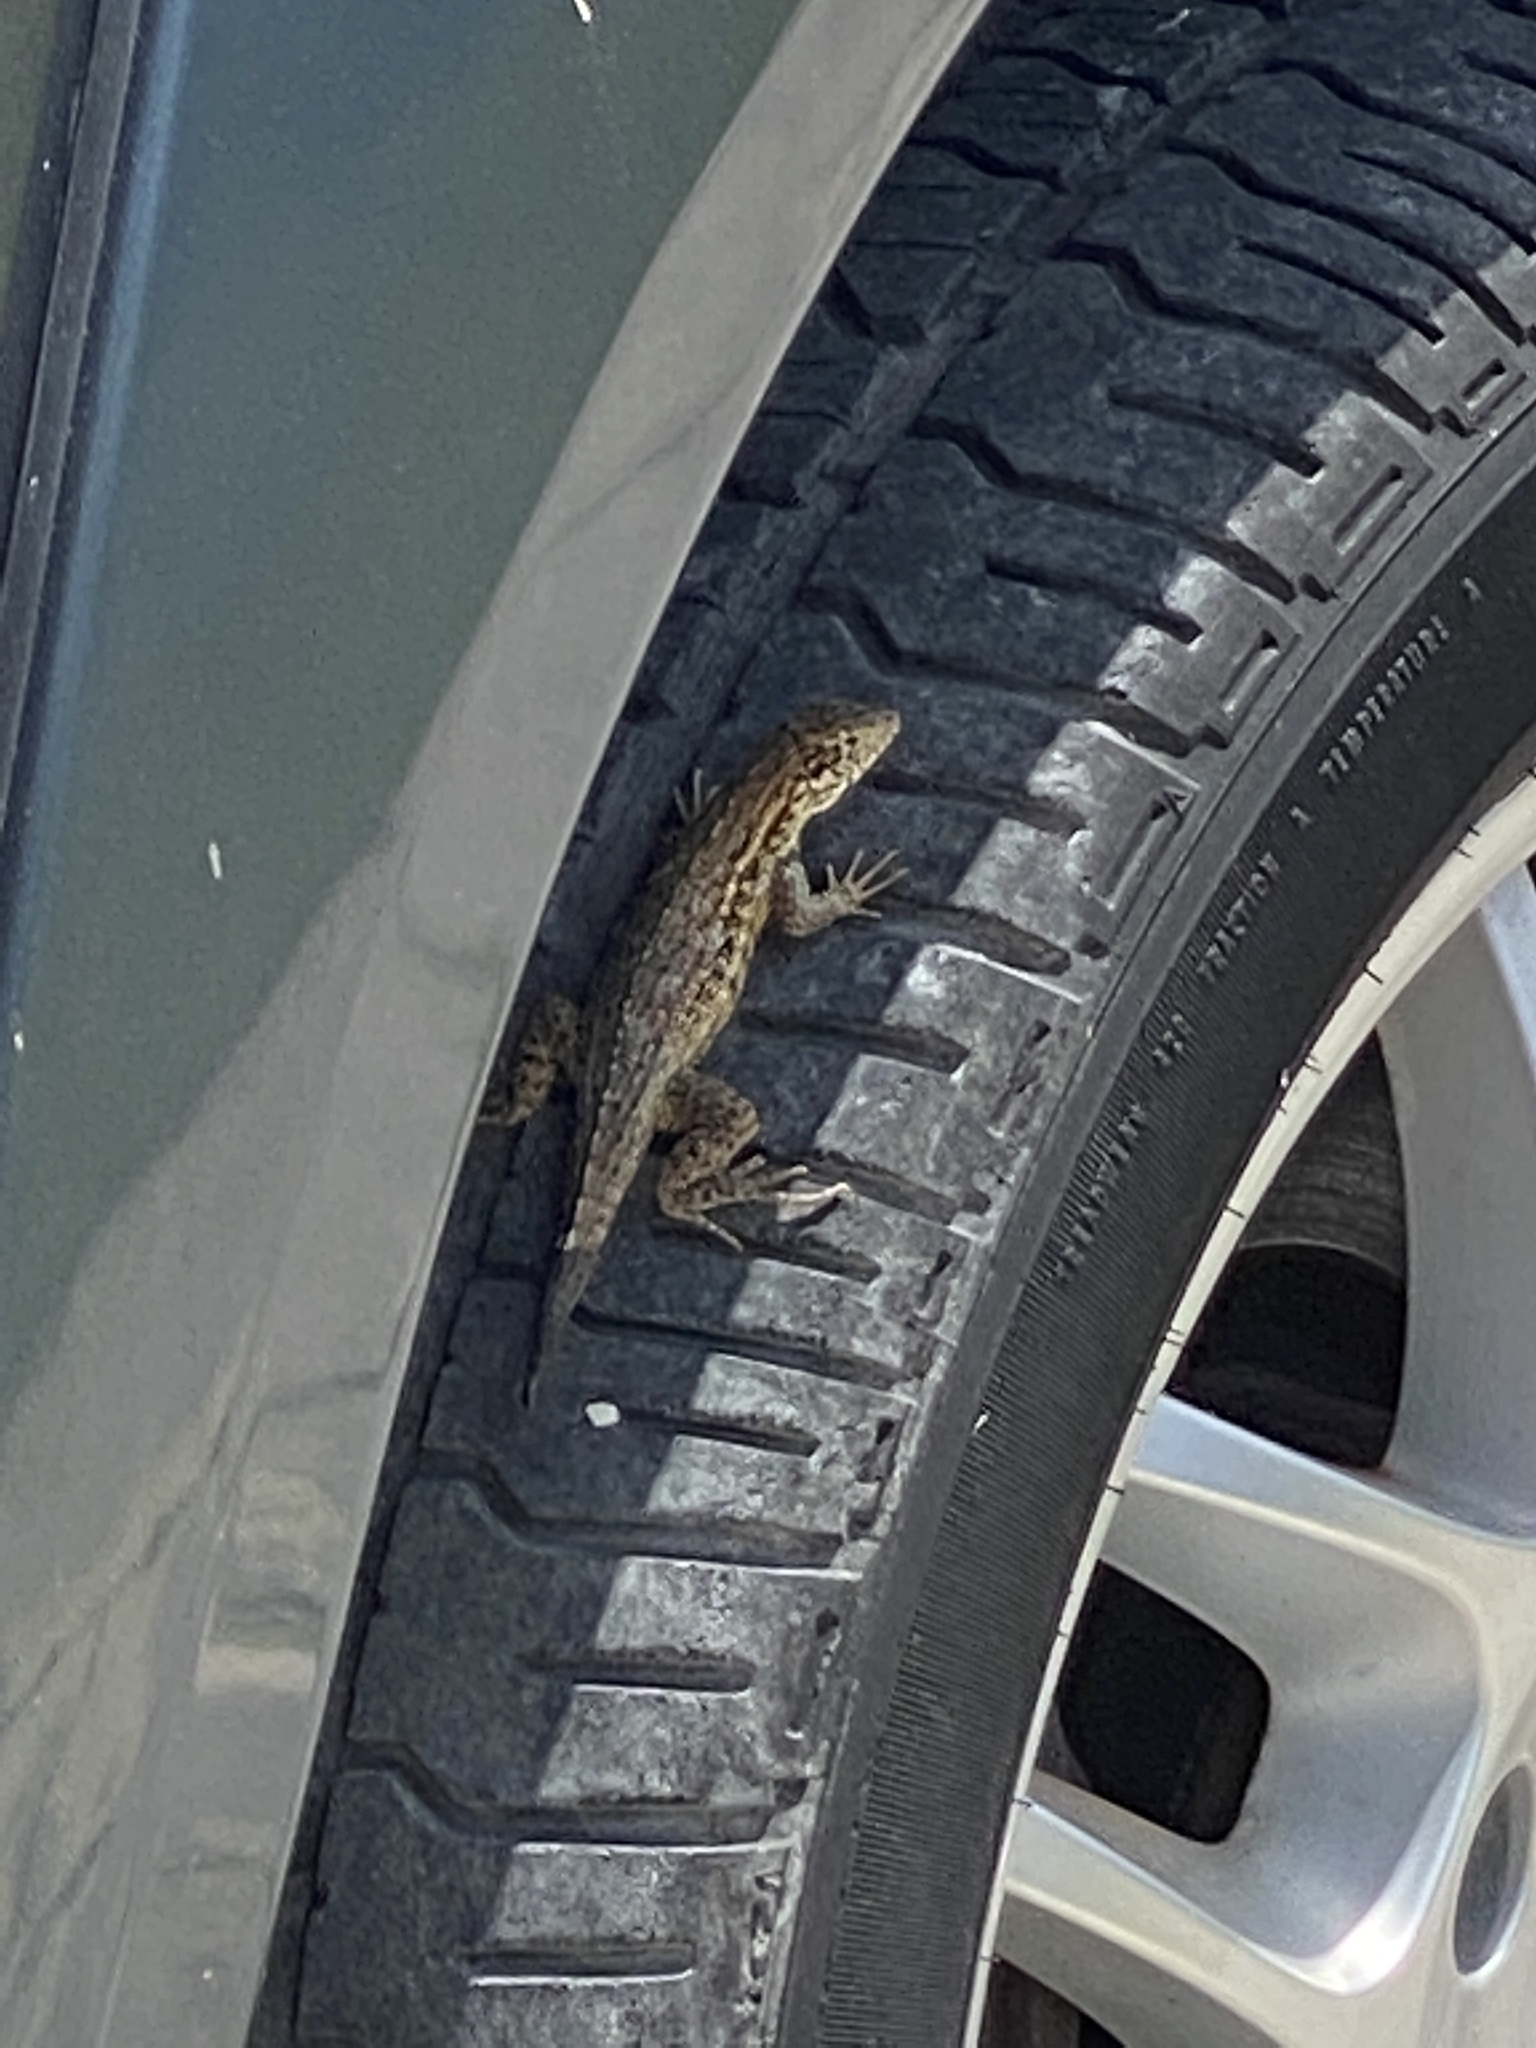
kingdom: Animalia
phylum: Chordata
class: Squamata
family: Leiocephalidae
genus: Leiocephalus
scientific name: Leiocephalus carinatus
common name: Northern curly-tailed lizard
